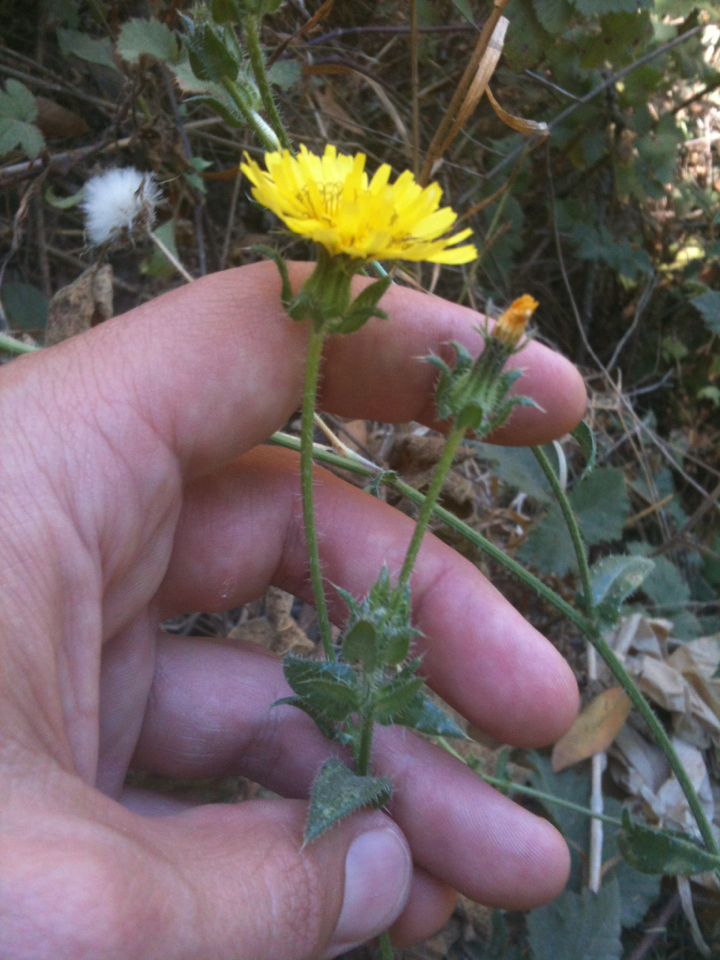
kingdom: Plantae
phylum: Tracheophyta
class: Magnoliopsida
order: Asterales
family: Asteraceae
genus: Helminthotheca
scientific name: Helminthotheca echioides
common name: Ox-tongue
